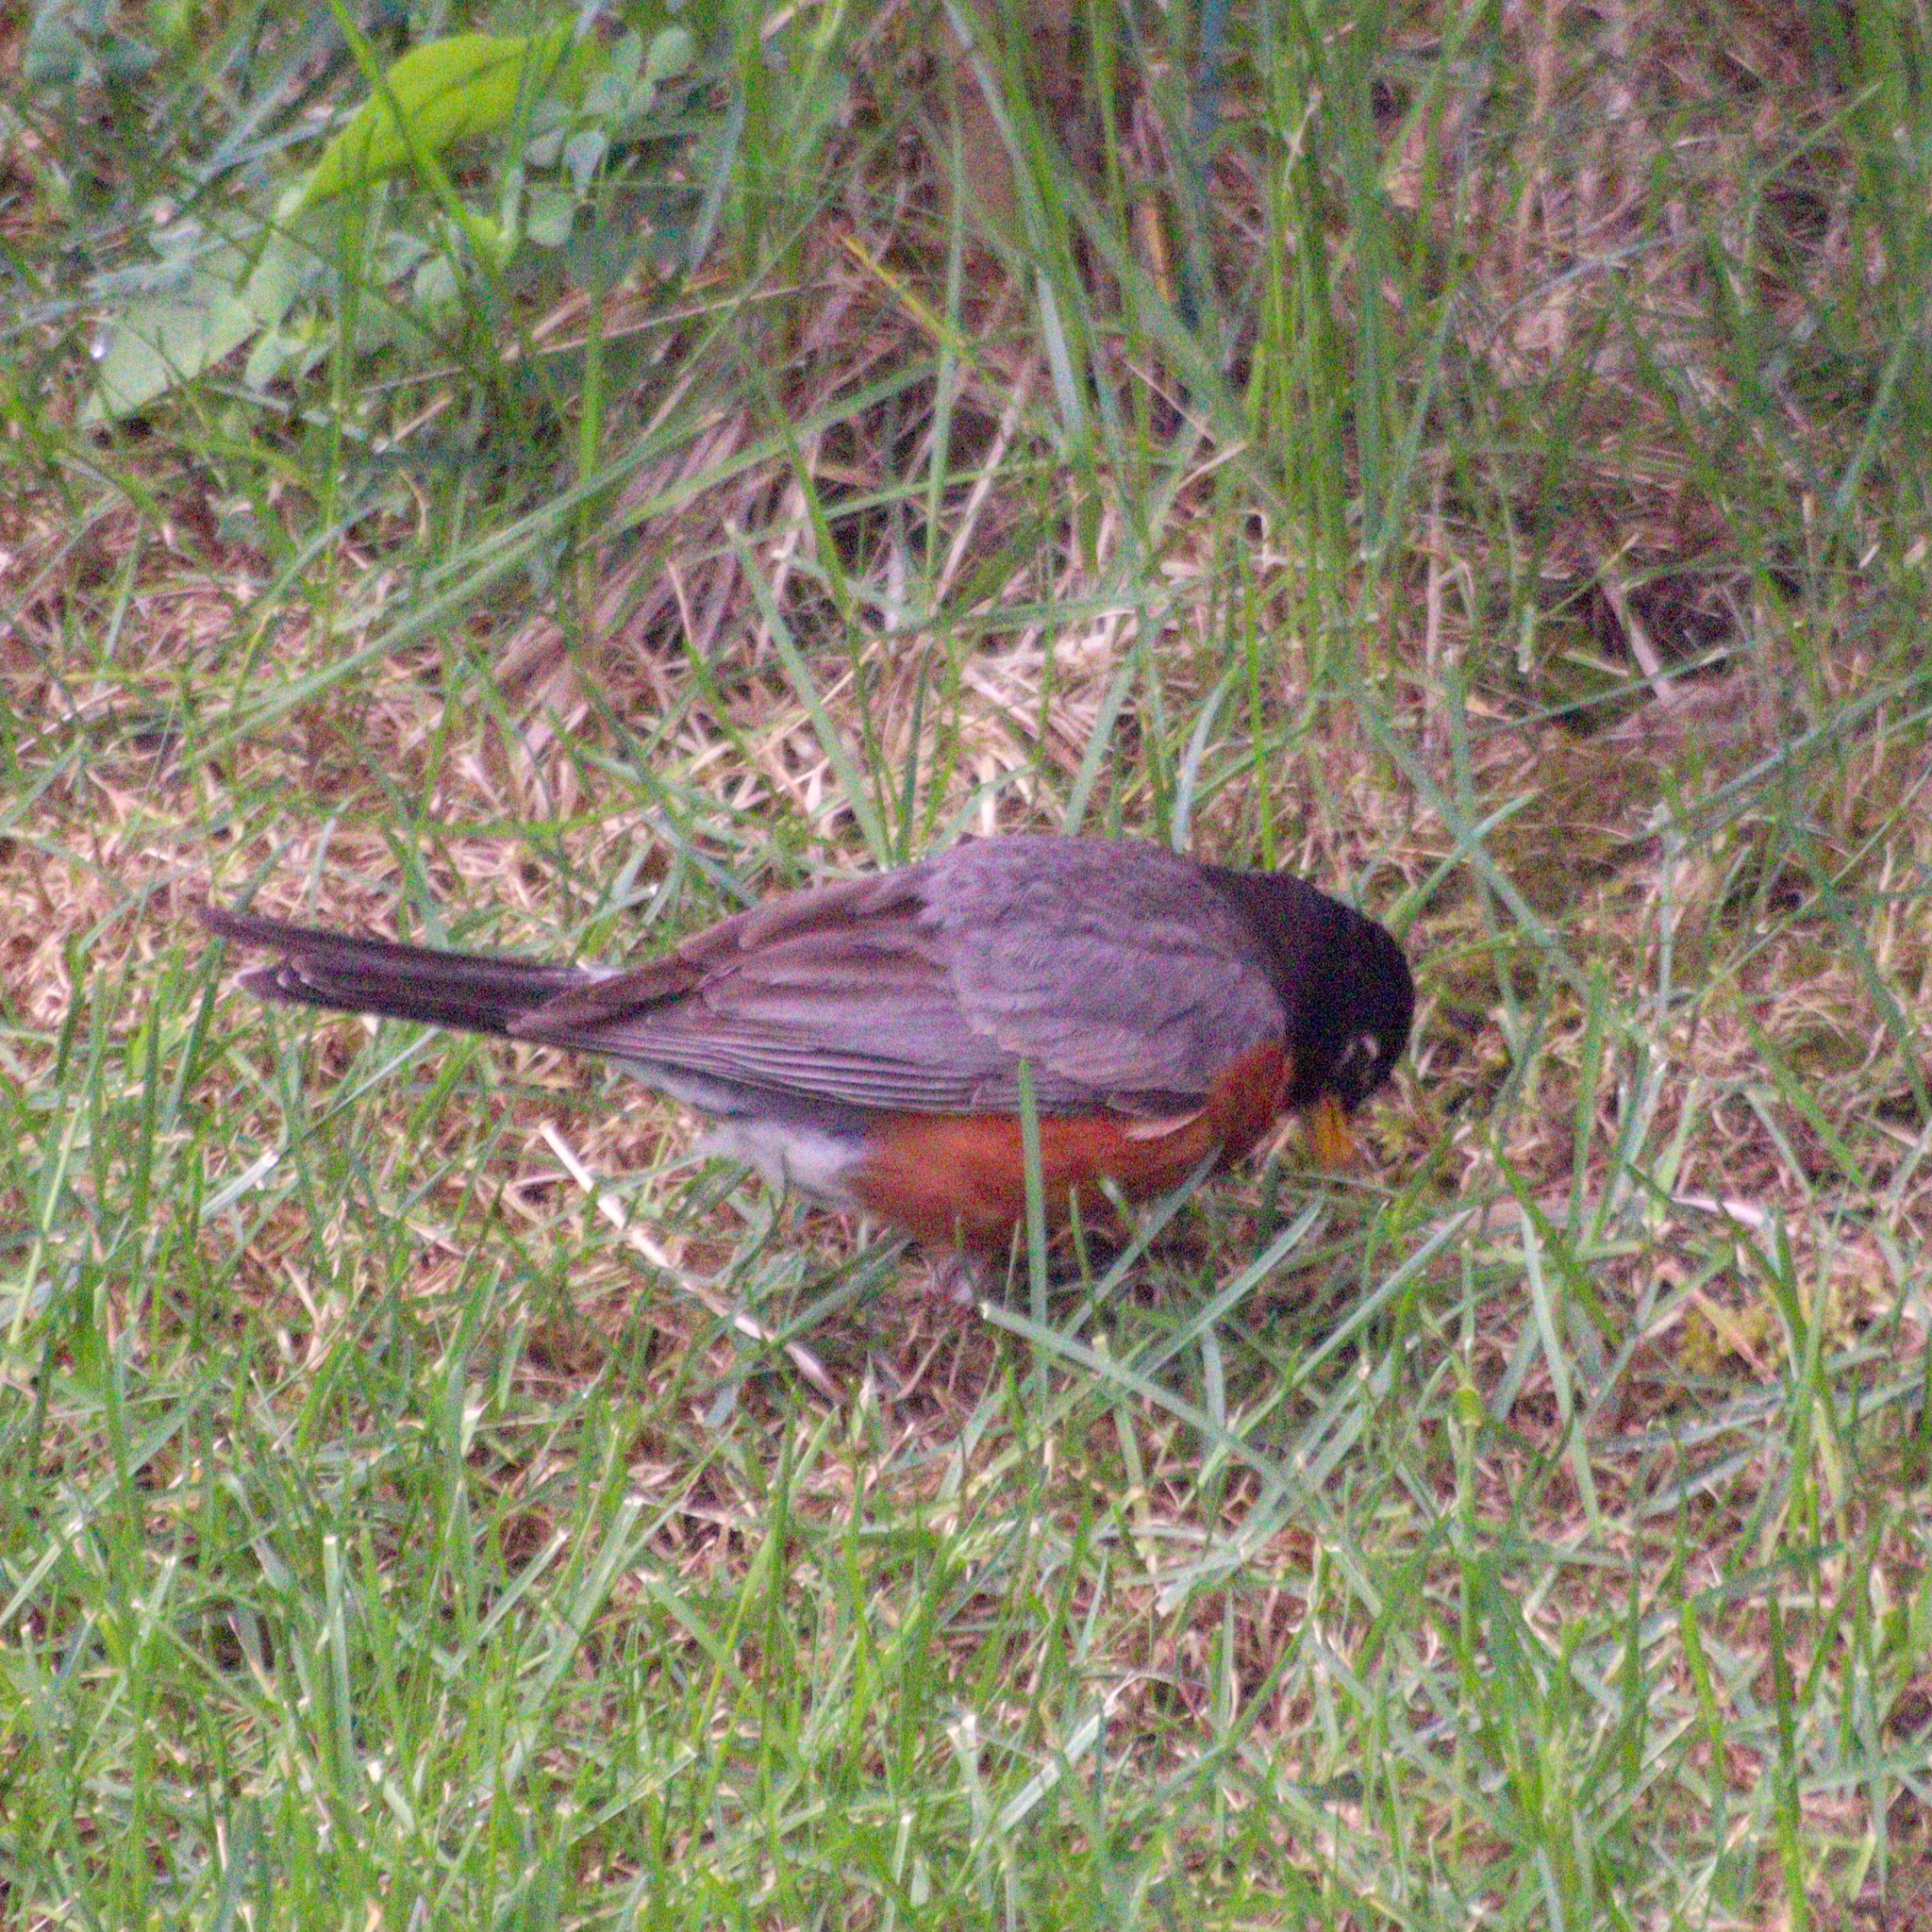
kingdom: Animalia
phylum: Chordata
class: Aves
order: Passeriformes
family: Turdidae
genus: Turdus
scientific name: Turdus migratorius
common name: American robin
